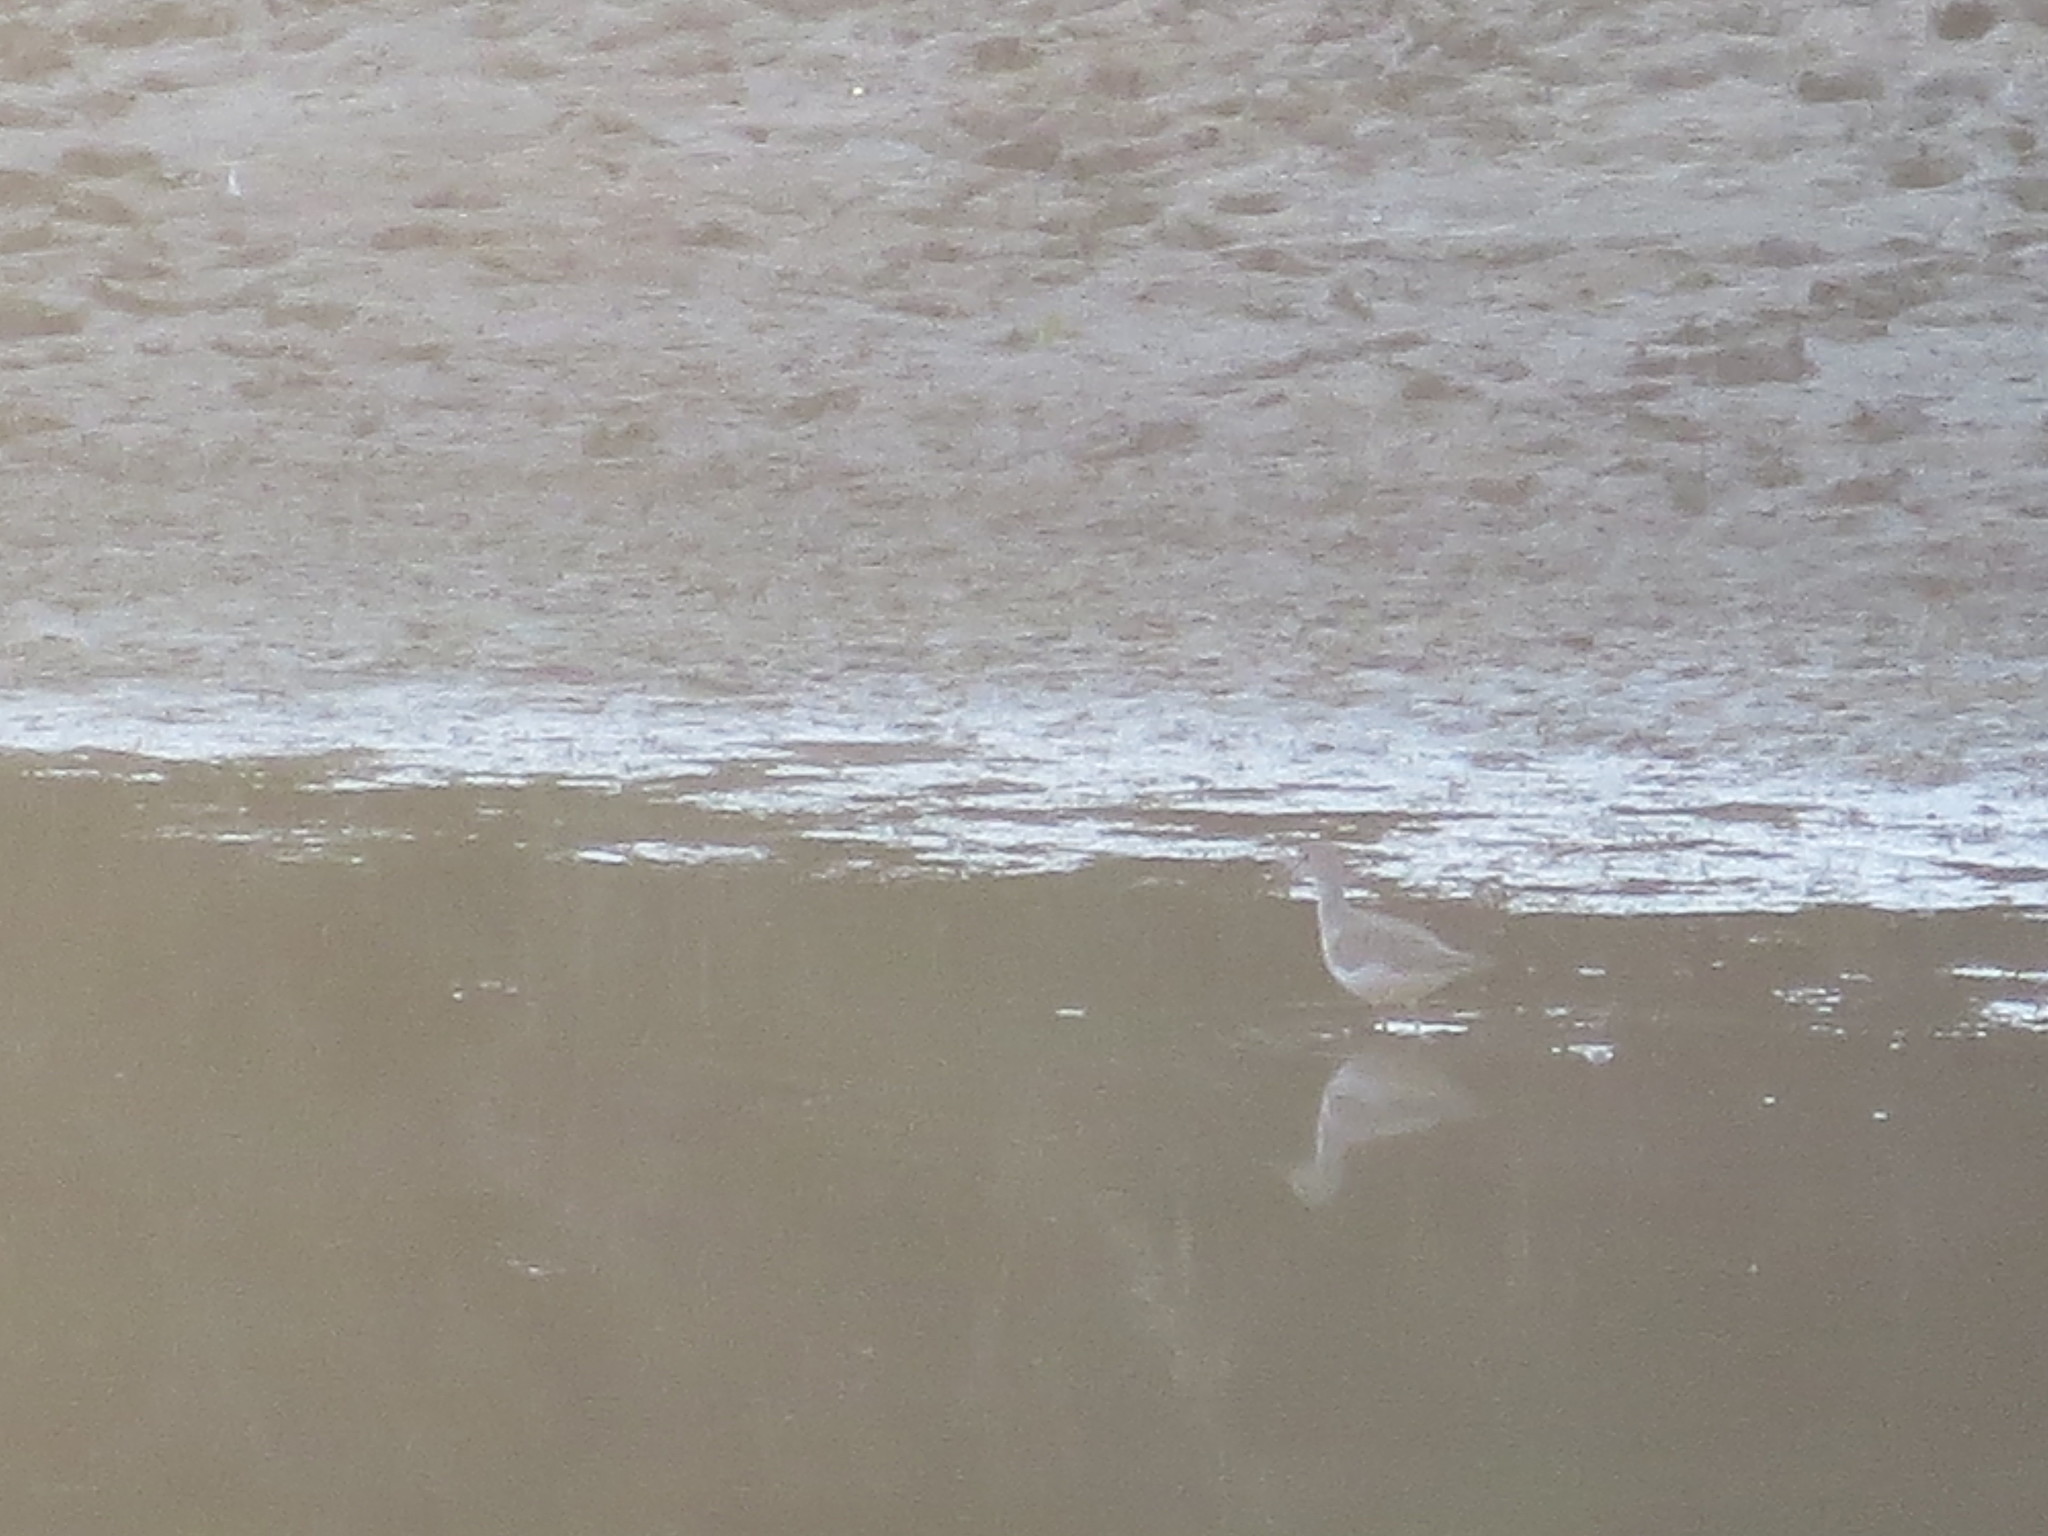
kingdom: Animalia
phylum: Chordata
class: Aves
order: Charadriiformes
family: Scolopacidae
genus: Tringa
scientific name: Tringa melanoleuca
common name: Greater yellowlegs
